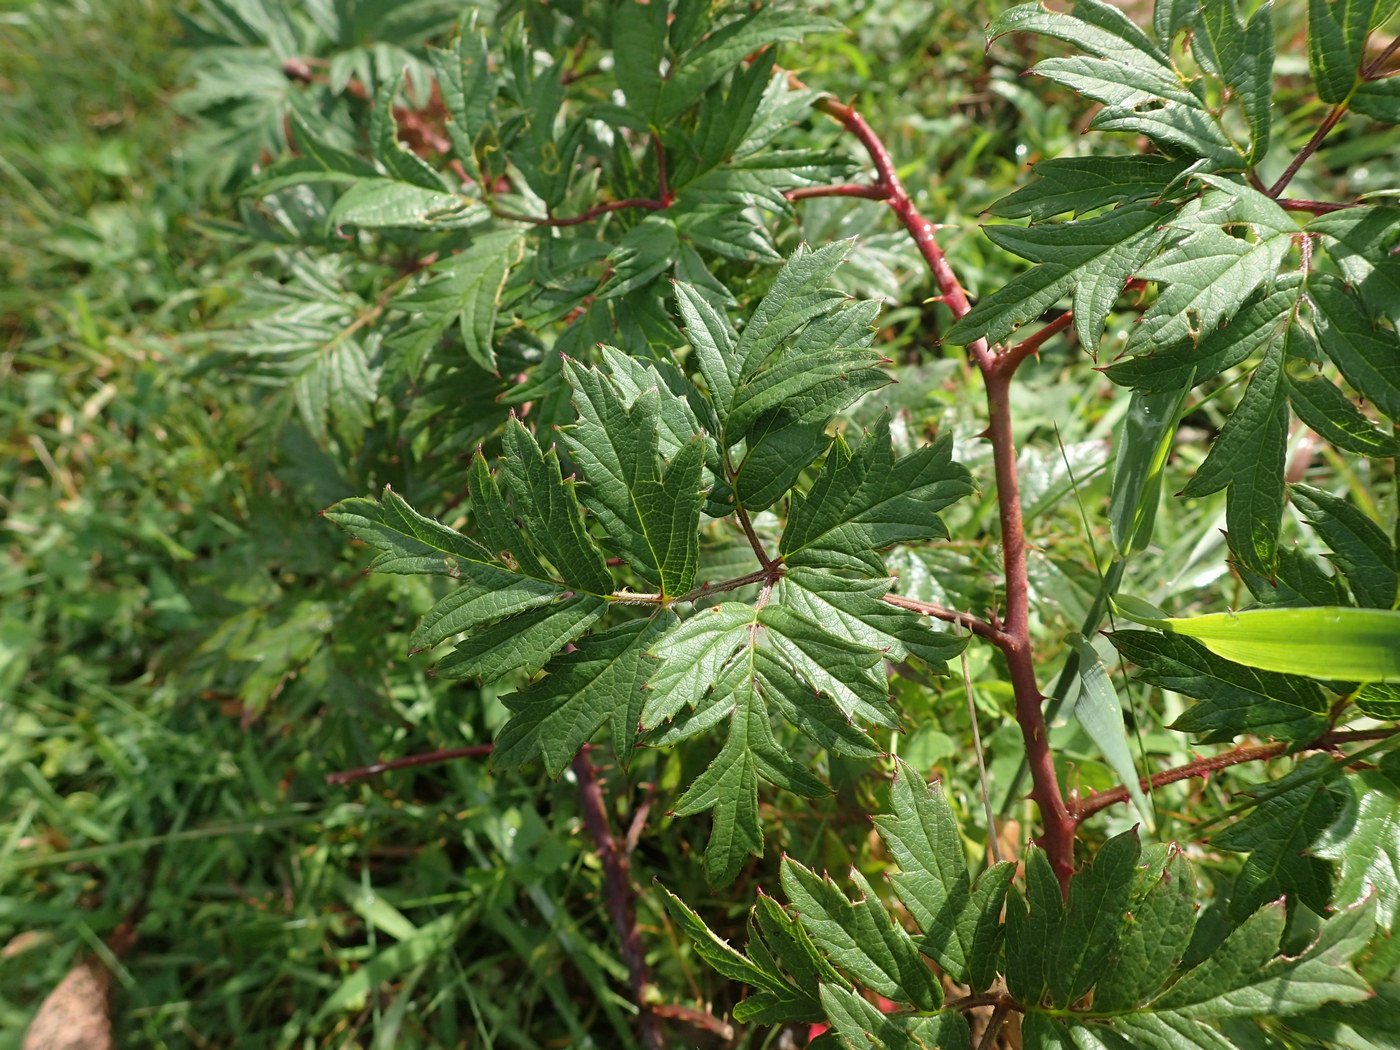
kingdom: Plantae
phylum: Tracheophyta
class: Magnoliopsida
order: Rosales
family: Rosaceae
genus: Rubus
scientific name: Rubus laciniatus
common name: Evergreen blackberry
